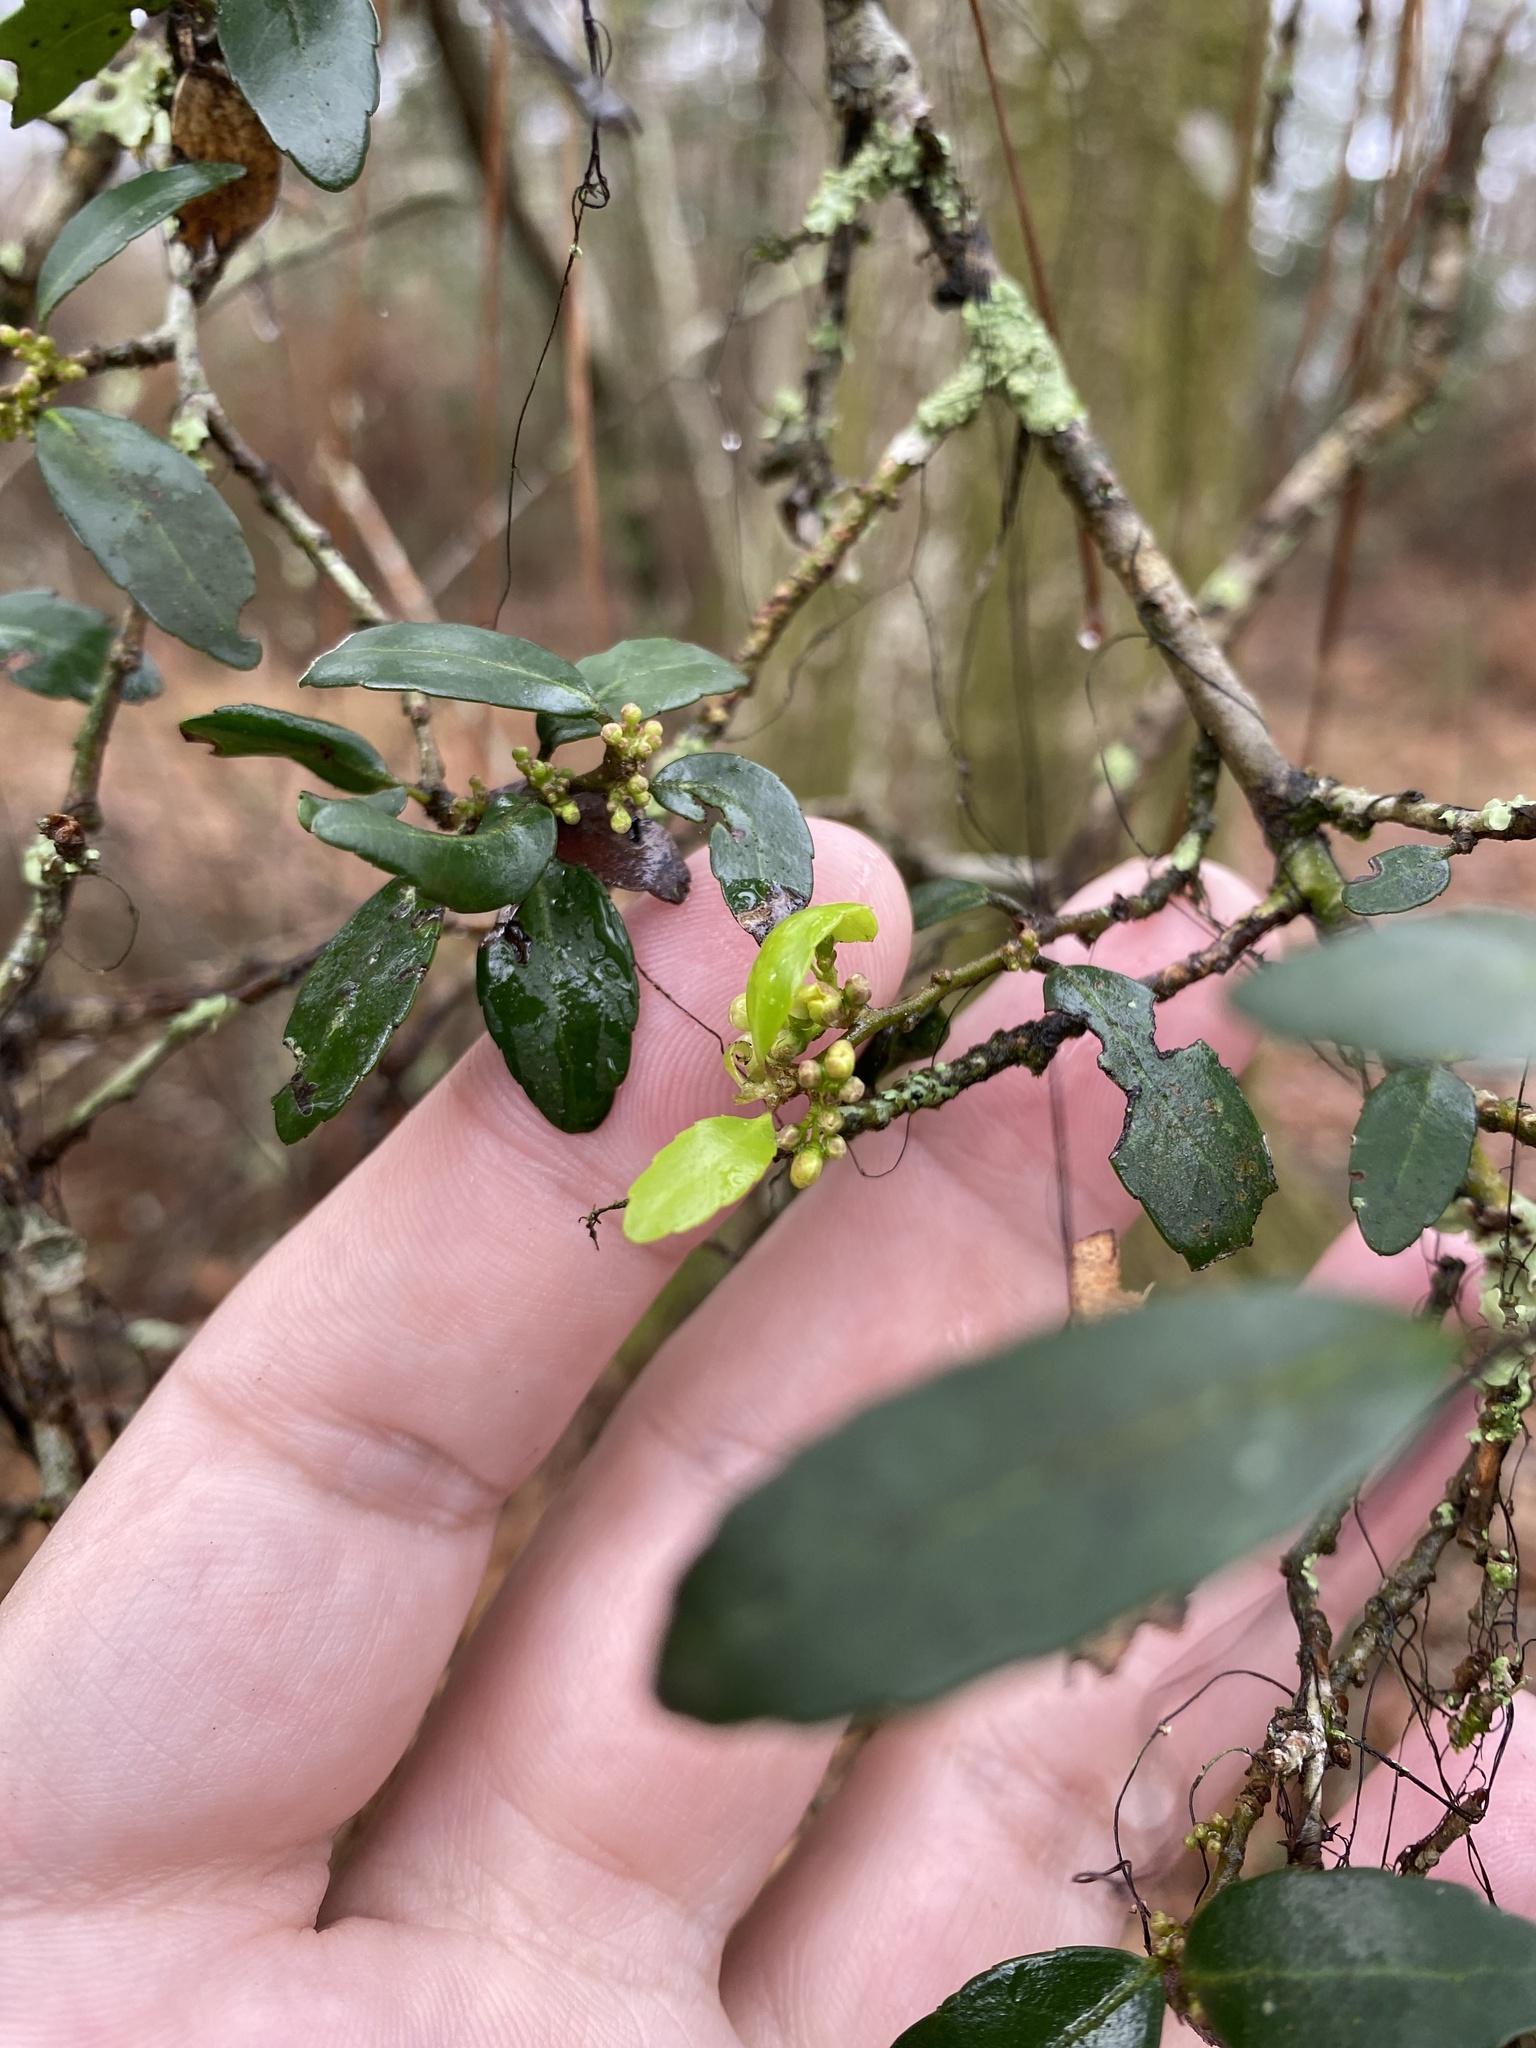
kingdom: Plantae
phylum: Tracheophyta
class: Magnoliopsida
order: Aquifoliales
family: Aquifoliaceae
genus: Ilex
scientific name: Ilex vomitoria
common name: Yaupon holly
